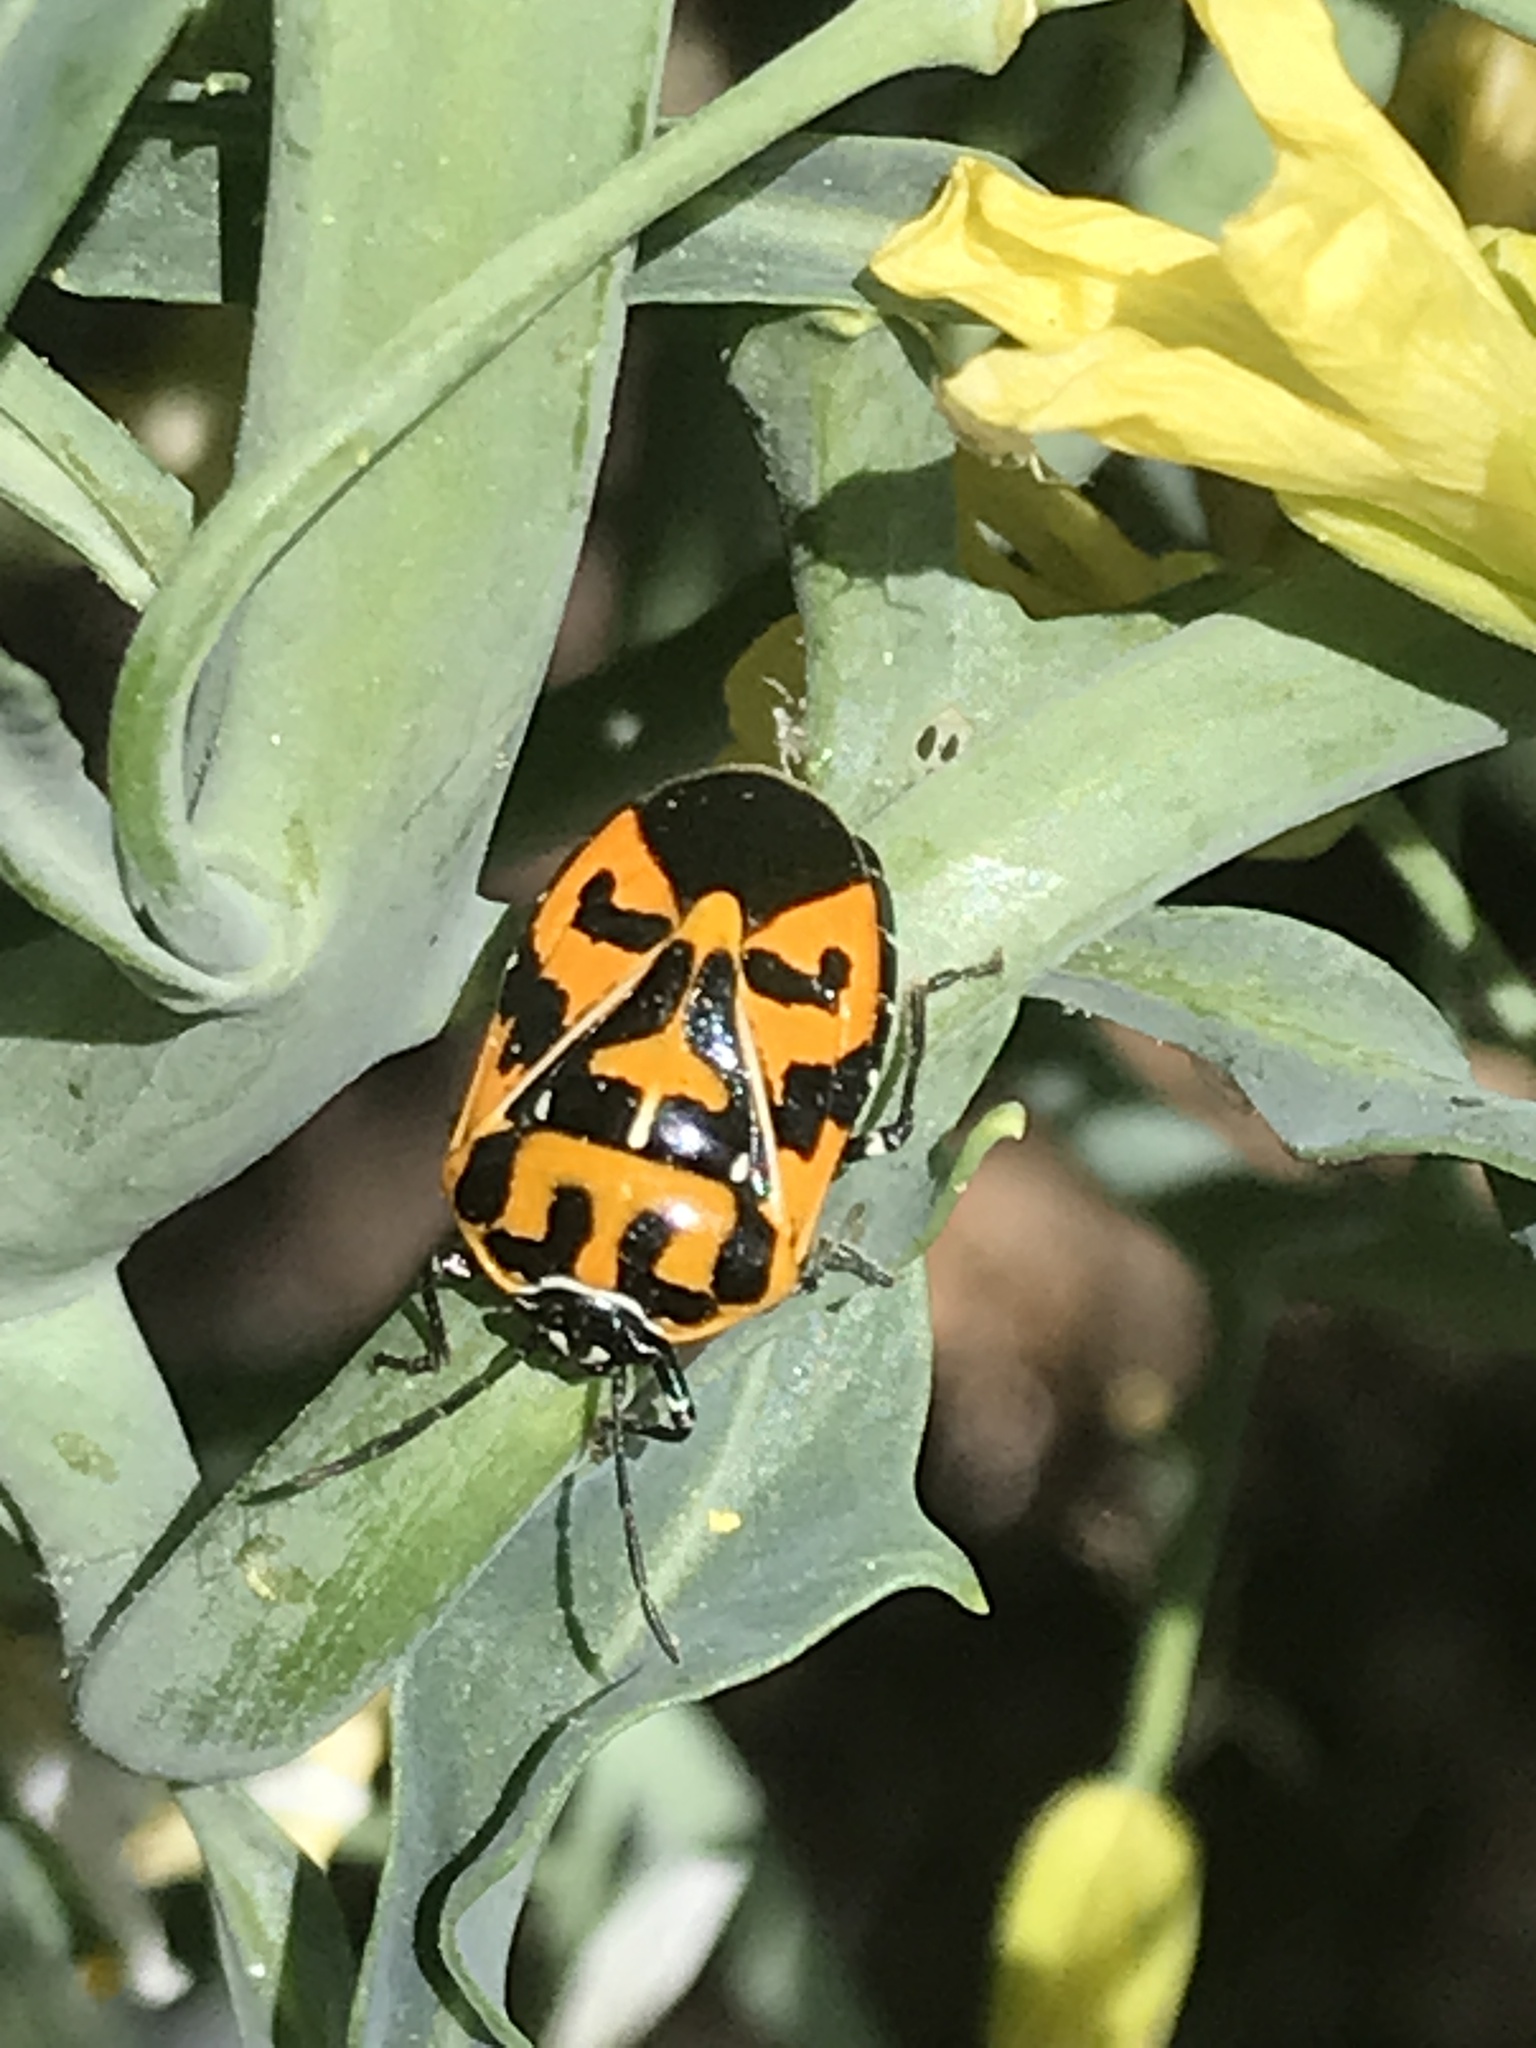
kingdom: Animalia
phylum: Arthropoda
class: Insecta
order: Hemiptera
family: Pentatomidae
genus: Murgantia
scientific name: Murgantia histrionica
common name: Harlequin bug
